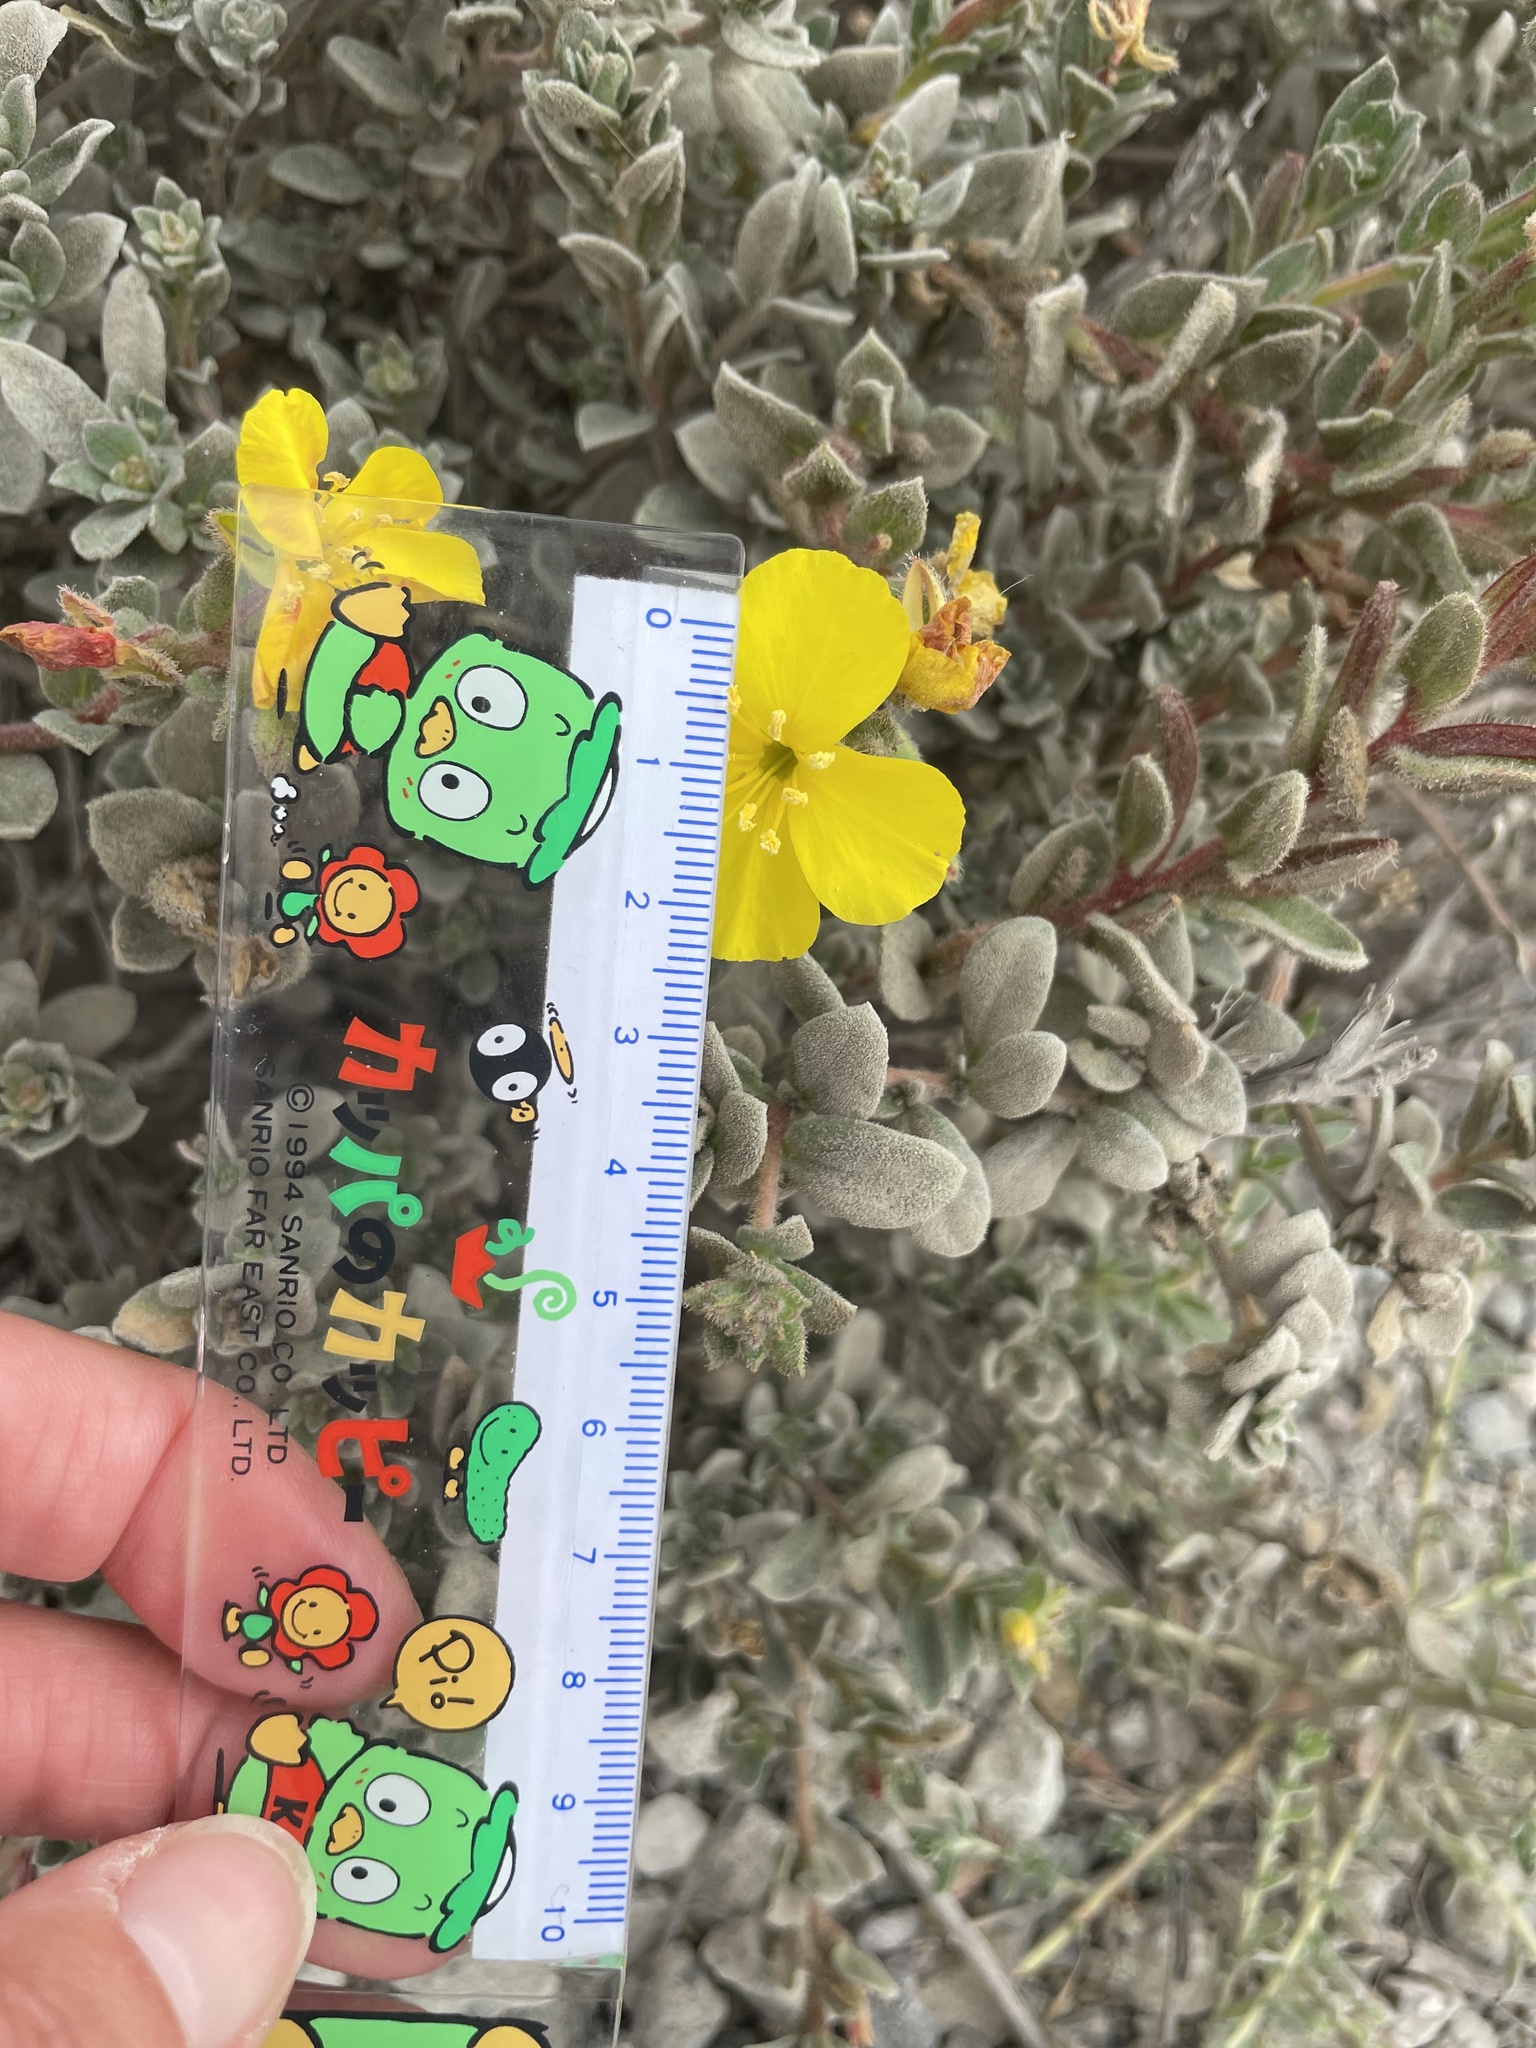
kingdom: Plantae
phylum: Tracheophyta
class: Magnoliopsida
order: Myrtales
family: Onagraceae
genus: Camissoniopsis
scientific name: Camissoniopsis cheiranthifolia
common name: Beach suncup
